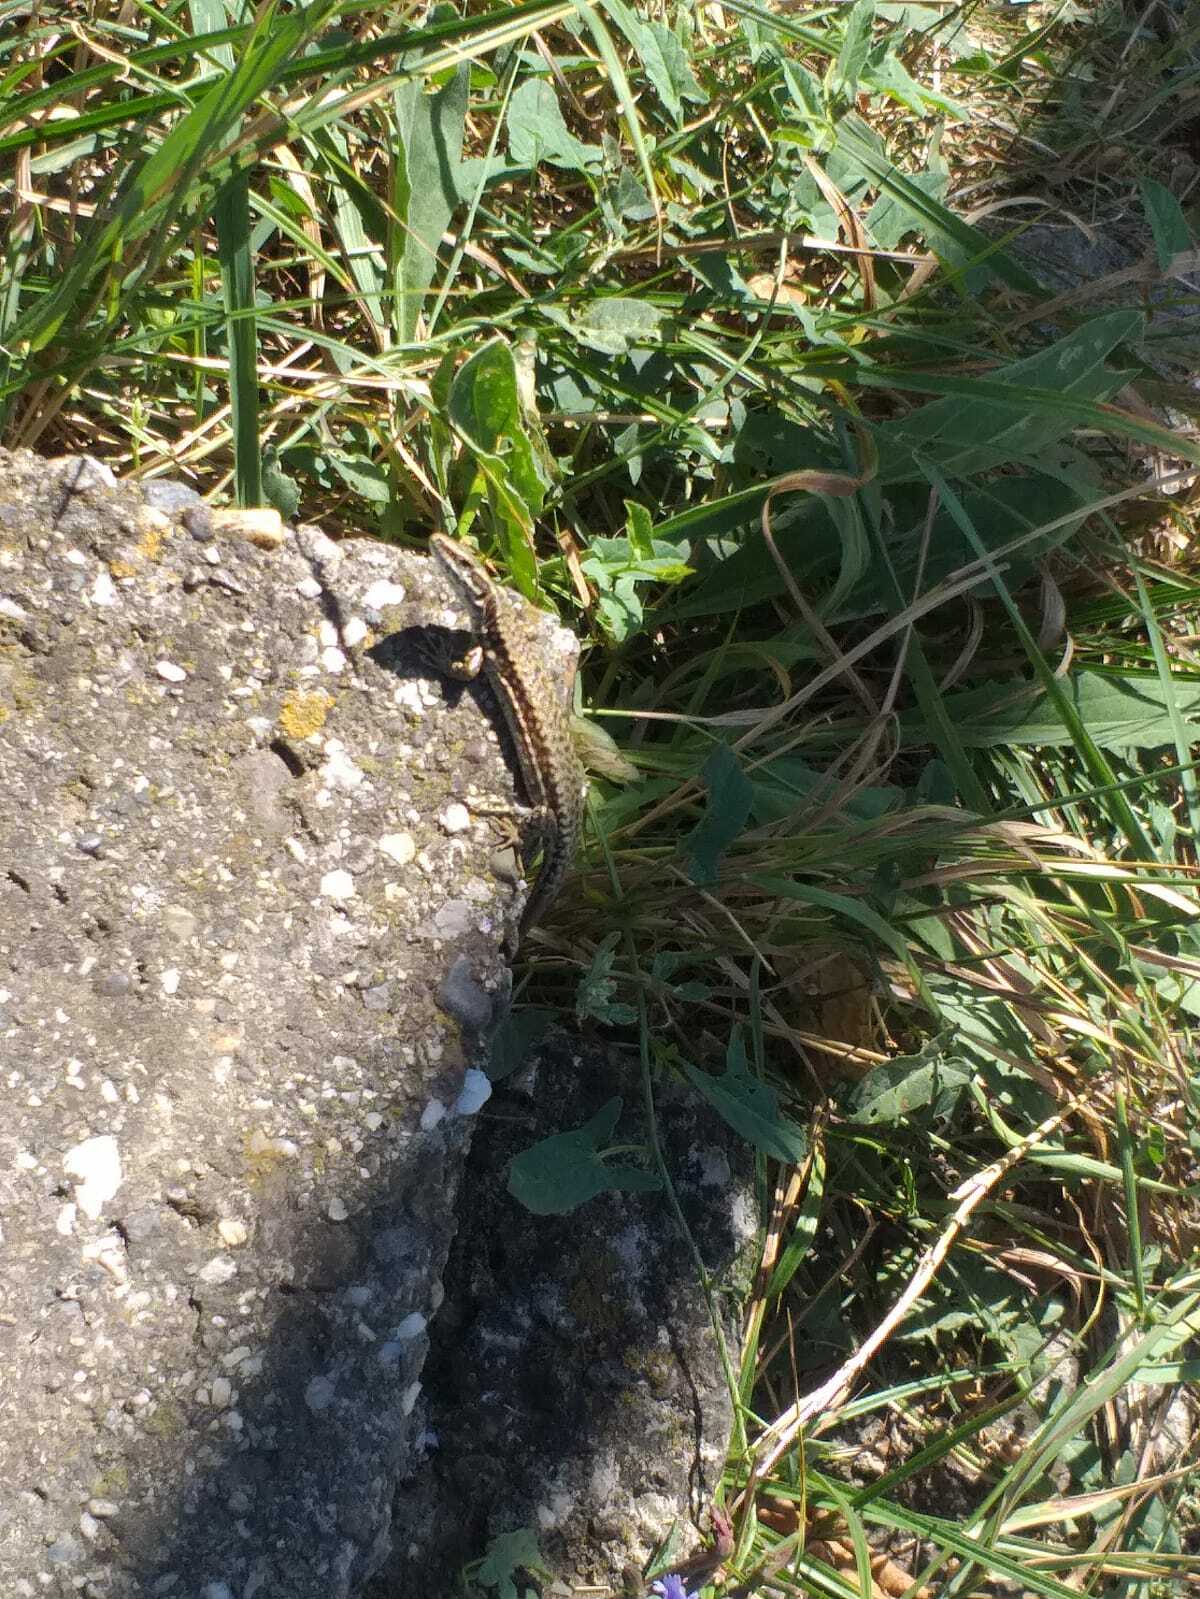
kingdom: Animalia
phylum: Chordata
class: Squamata
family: Lacertidae
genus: Podarcis
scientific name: Podarcis muralis
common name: Common wall lizard
